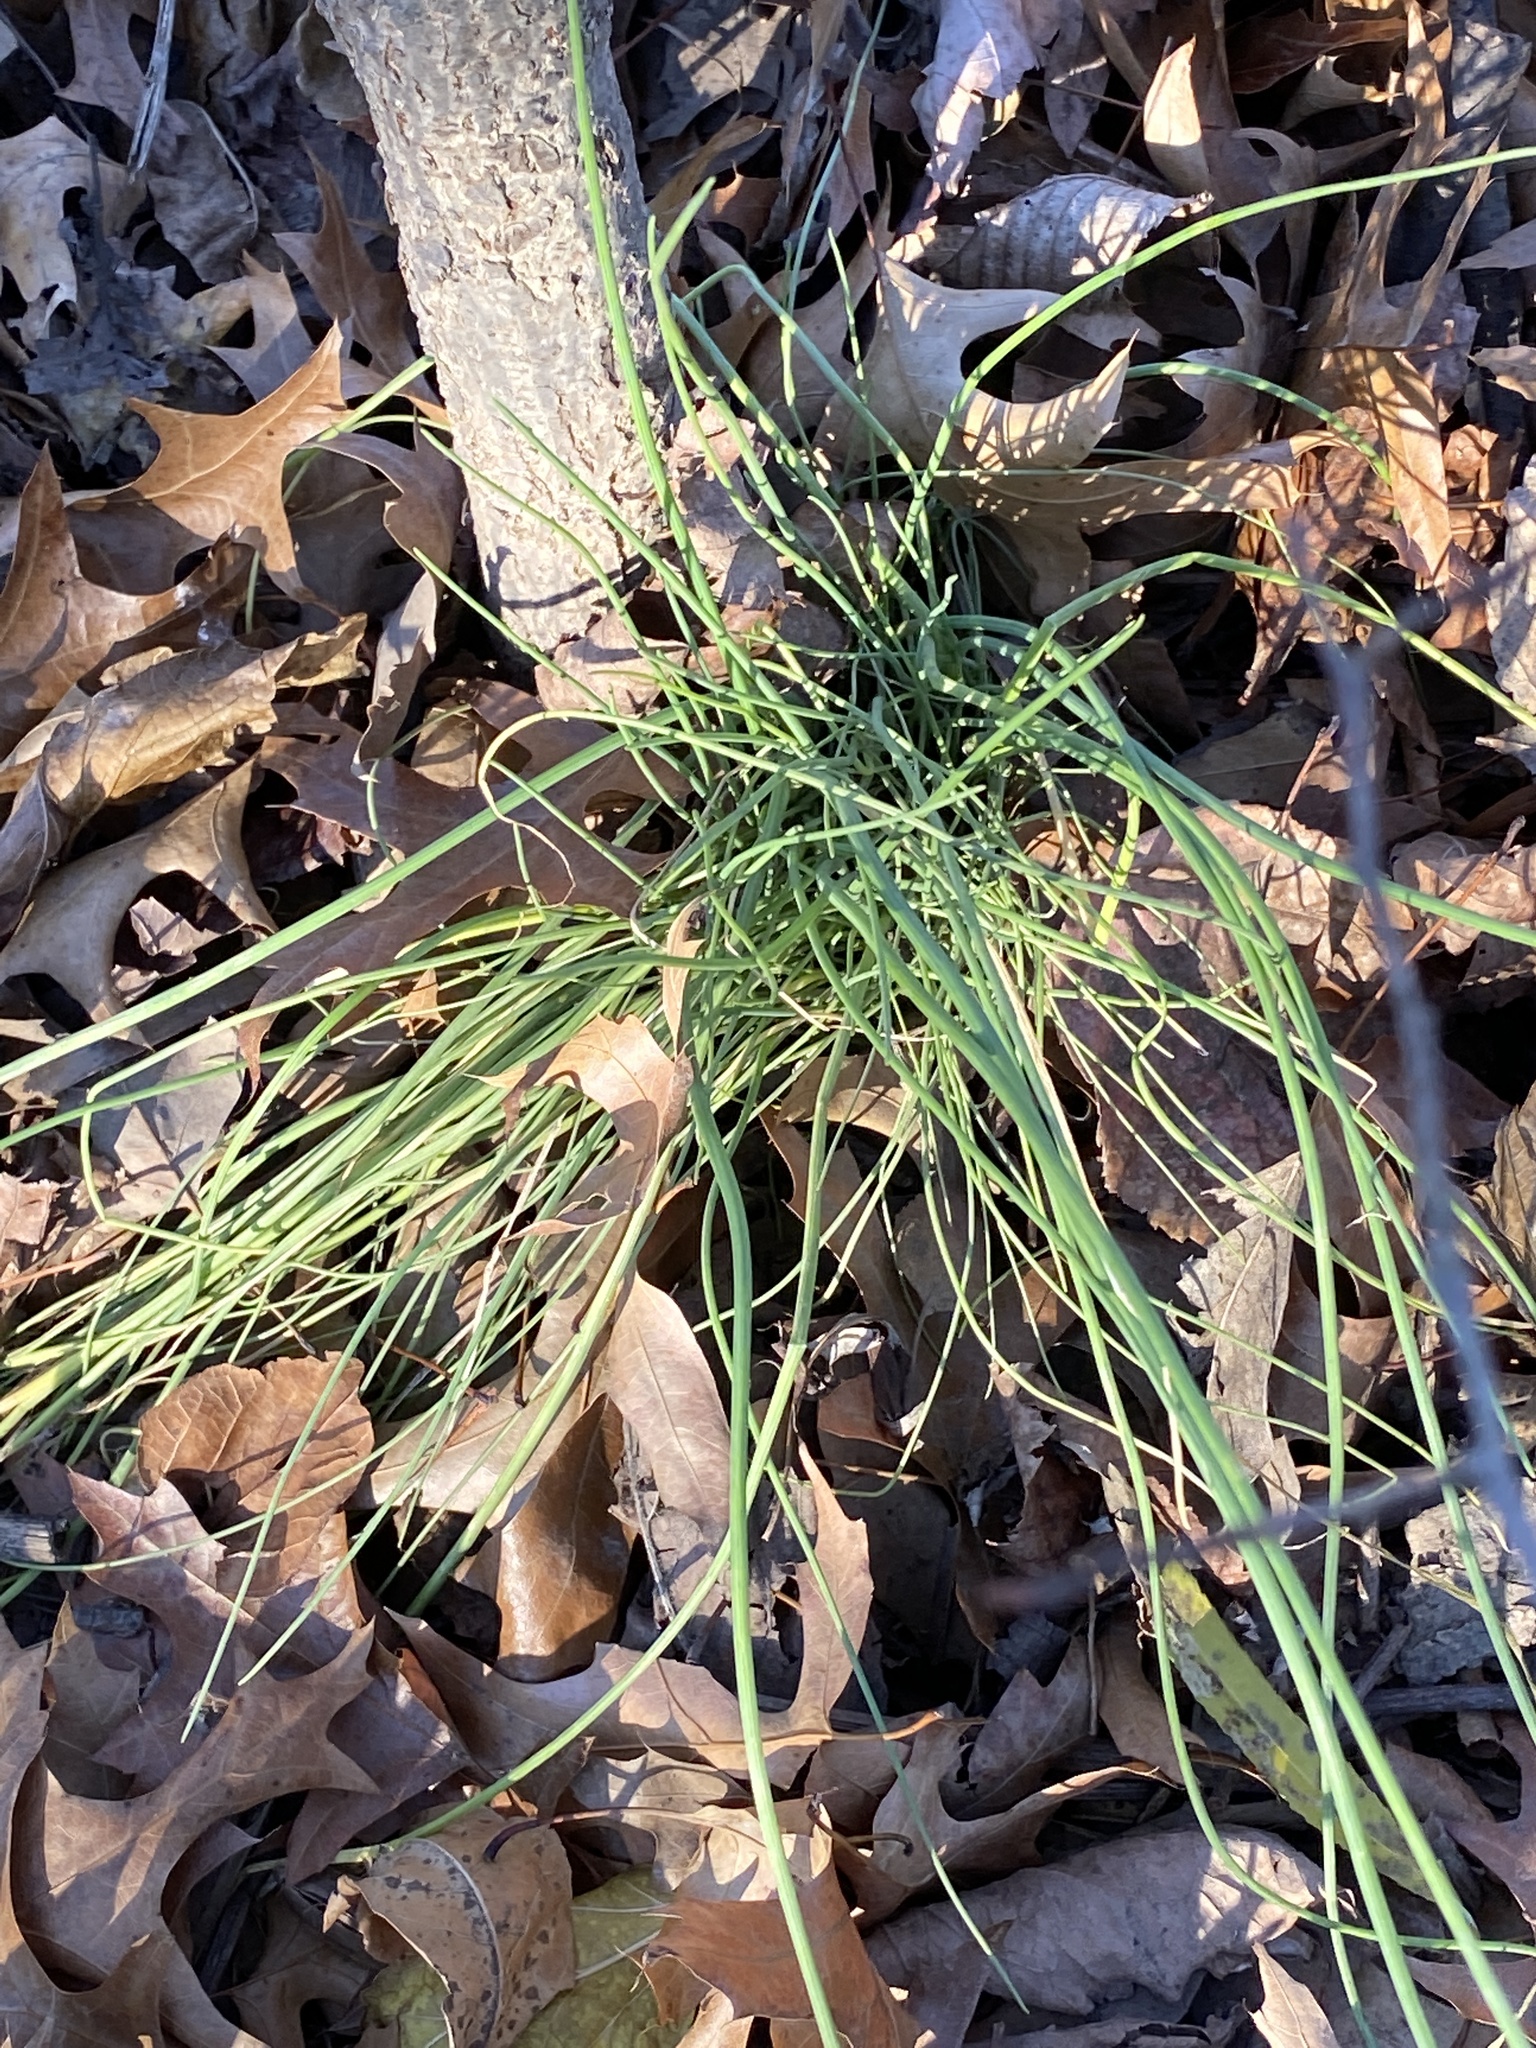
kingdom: Plantae
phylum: Tracheophyta
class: Liliopsida
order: Asparagales
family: Amaryllidaceae
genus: Allium
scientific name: Allium vineale
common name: Crow garlic
